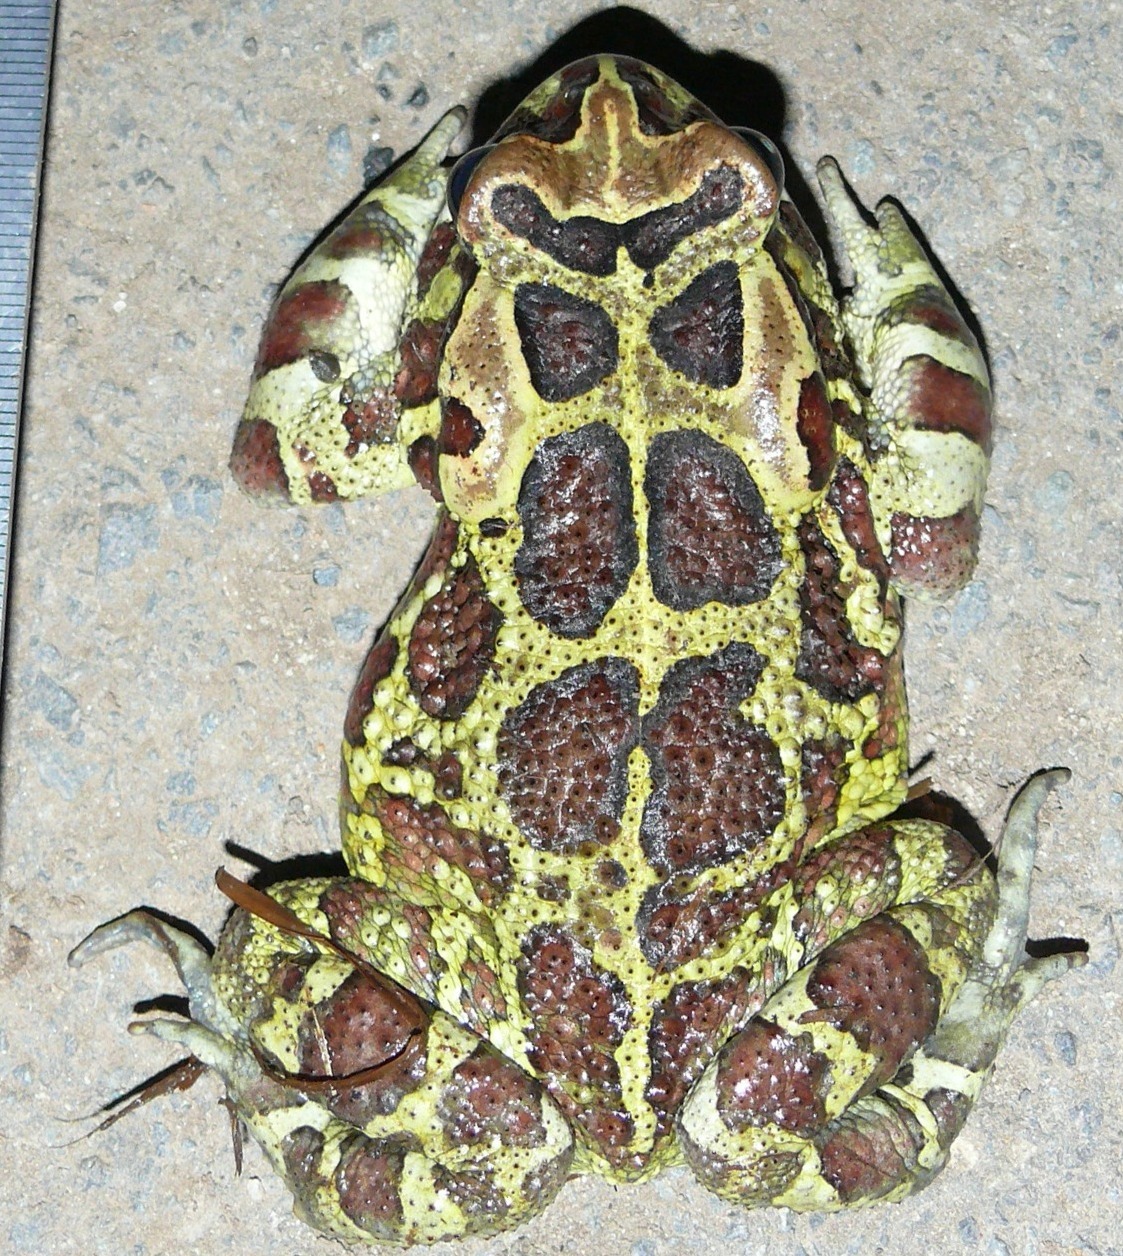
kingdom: Animalia
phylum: Chordata
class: Amphibia
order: Anura
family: Bufonidae
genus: Sclerophrys
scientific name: Sclerophrys pantherina
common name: Panther toad
